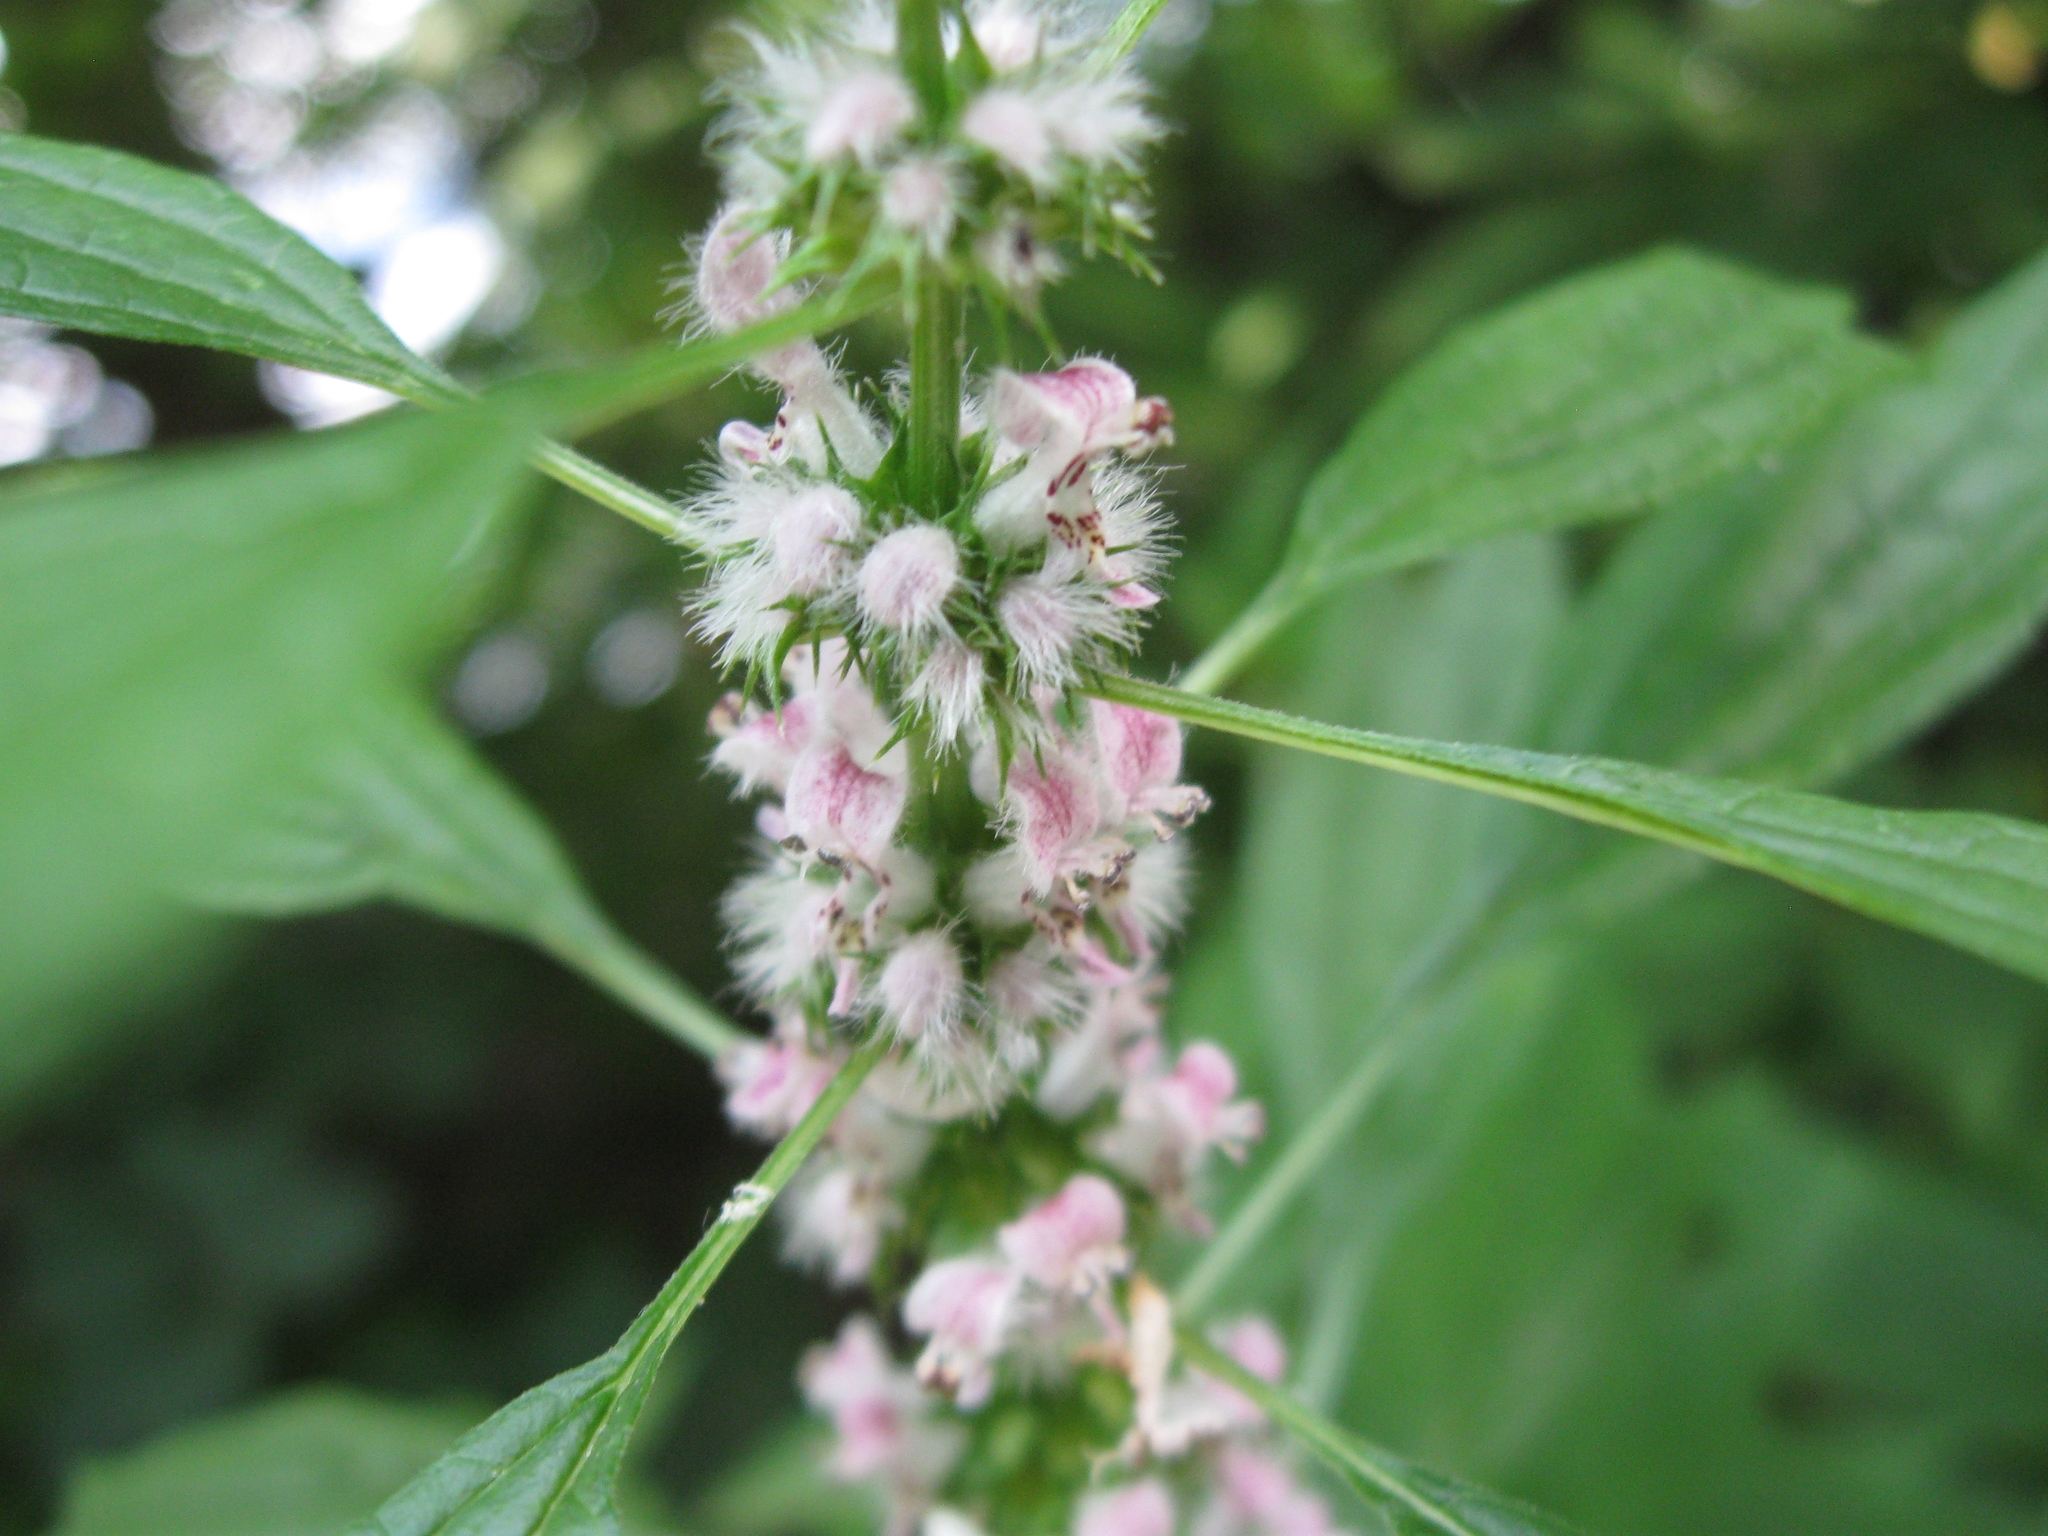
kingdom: Plantae
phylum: Tracheophyta
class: Magnoliopsida
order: Lamiales
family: Lamiaceae
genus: Leonurus
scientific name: Leonurus cardiaca
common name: Motherwort
